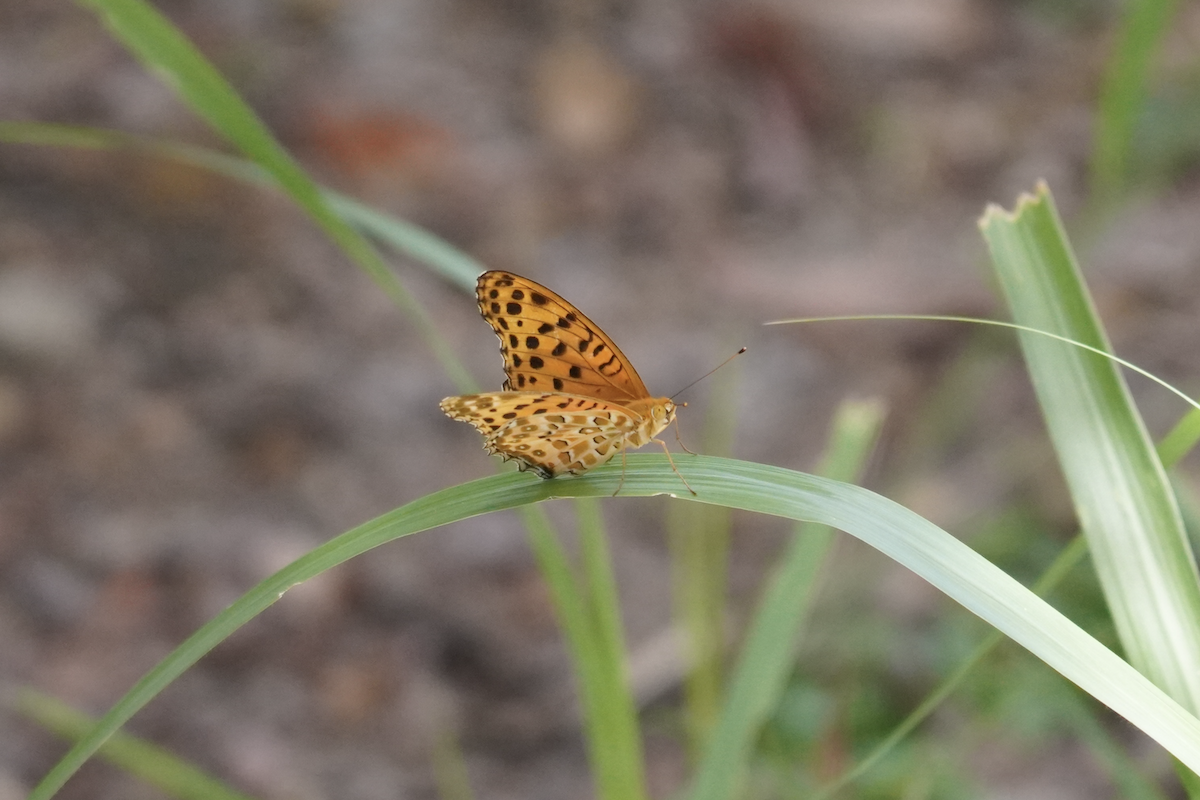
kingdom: Animalia
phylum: Arthropoda
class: Insecta
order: Lepidoptera
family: Nymphalidae
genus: Argynnis
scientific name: Argynnis hyperbius
